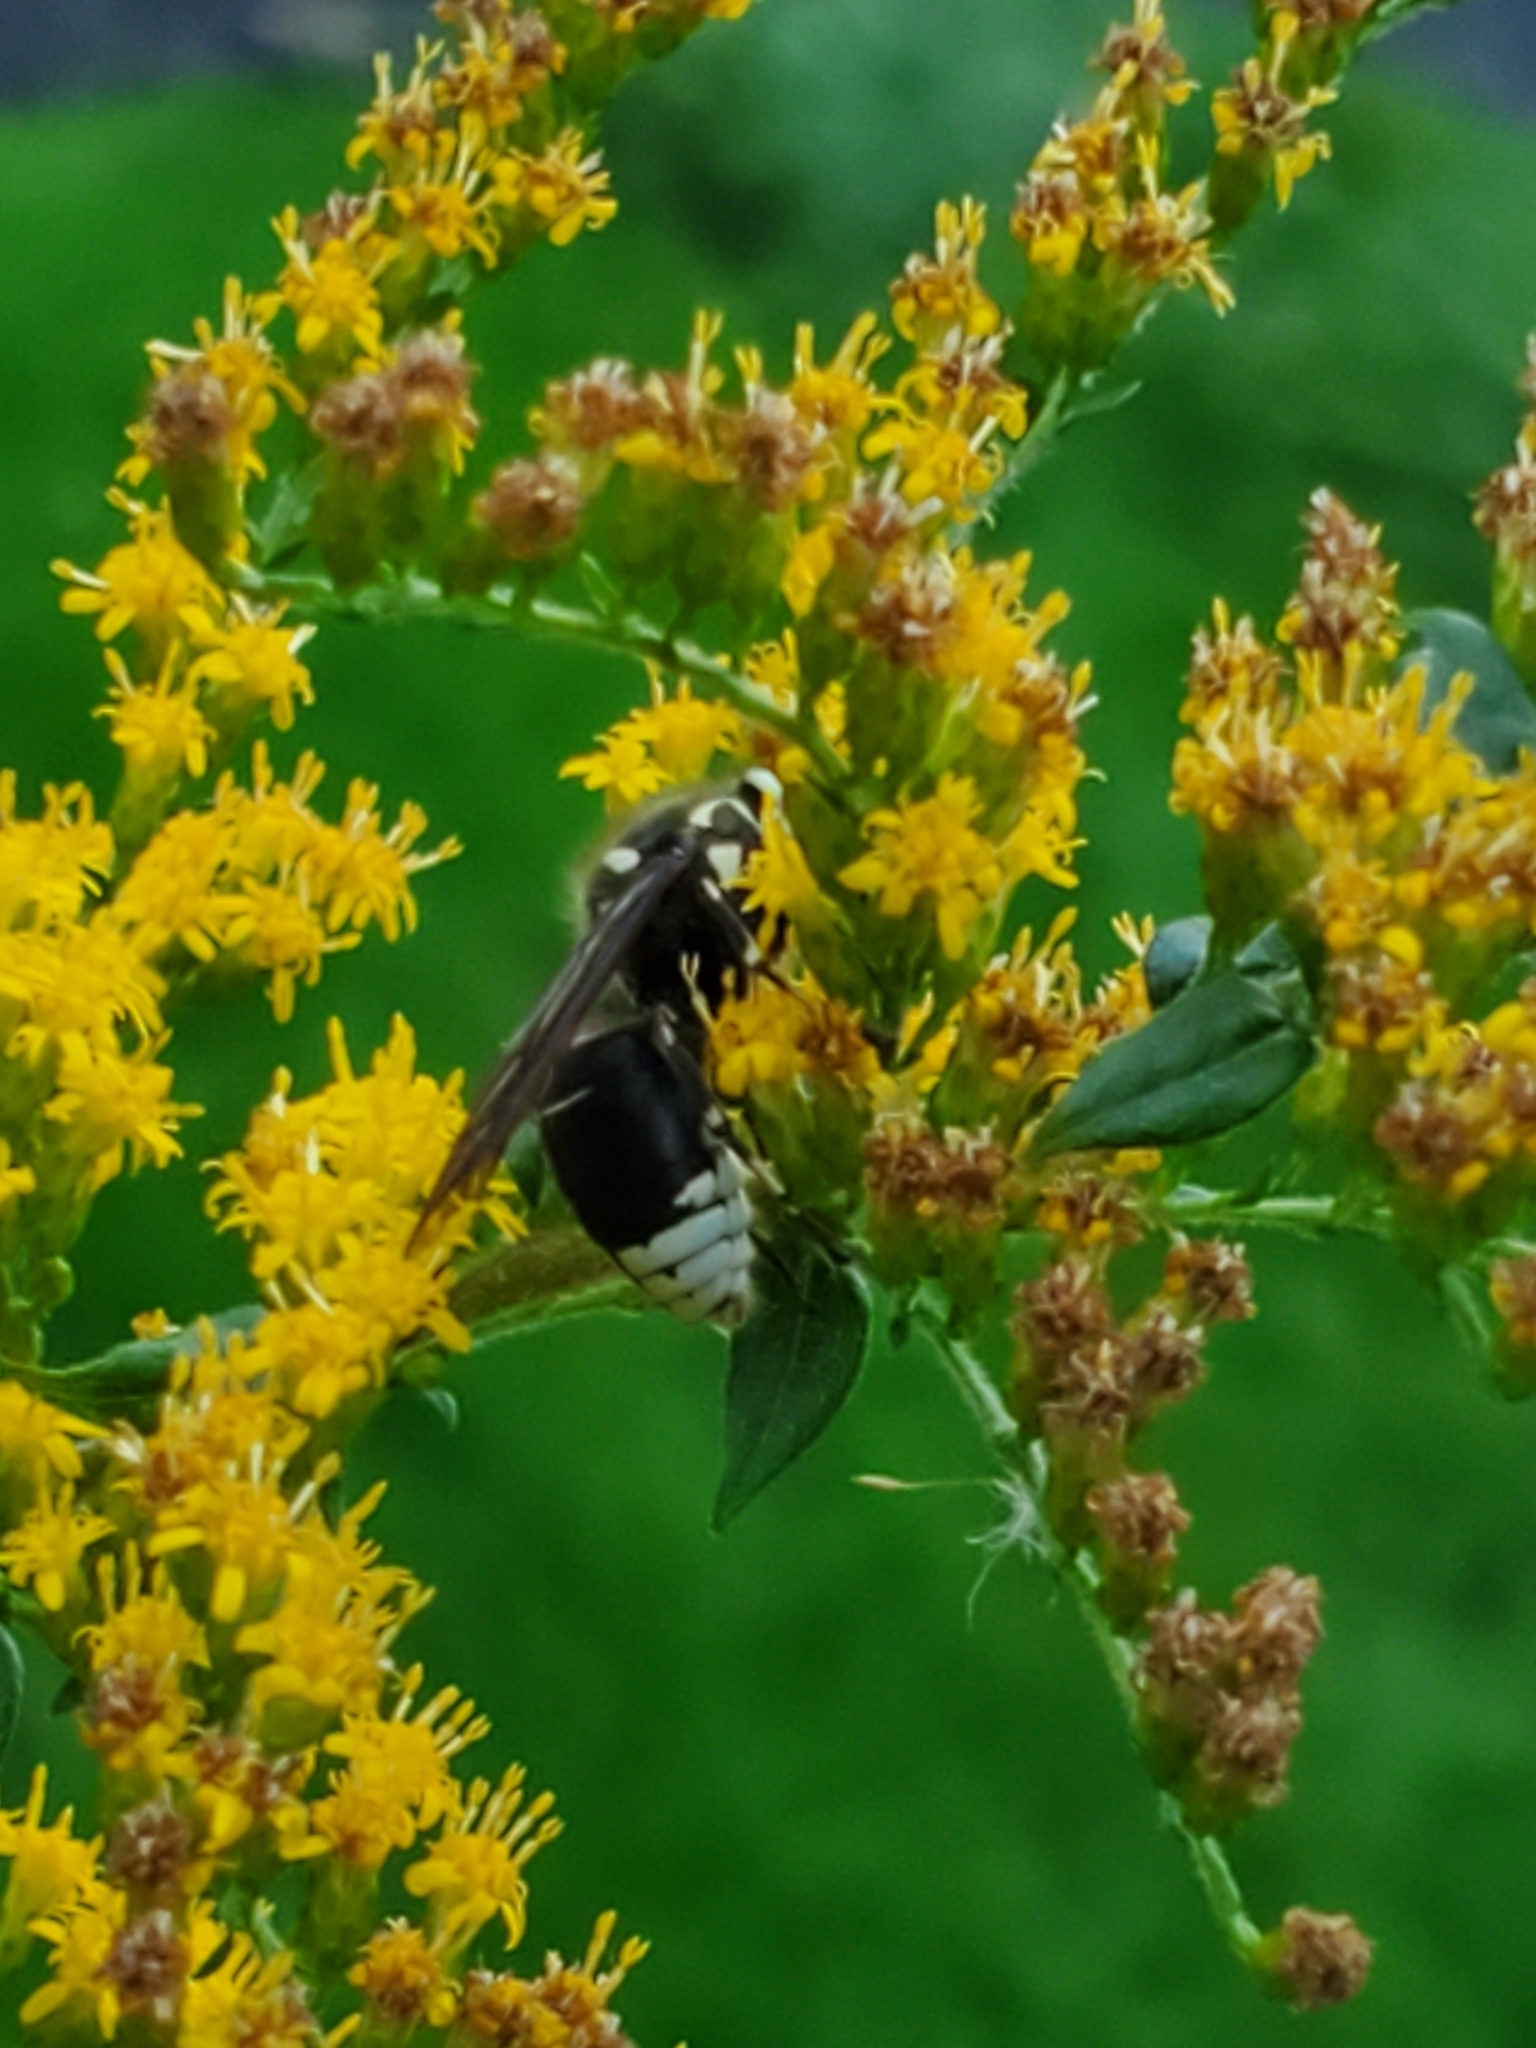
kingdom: Animalia
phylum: Arthropoda
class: Insecta
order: Hymenoptera
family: Vespidae
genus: Dolichovespula
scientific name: Dolichovespula maculata
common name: Bald-faced hornet
